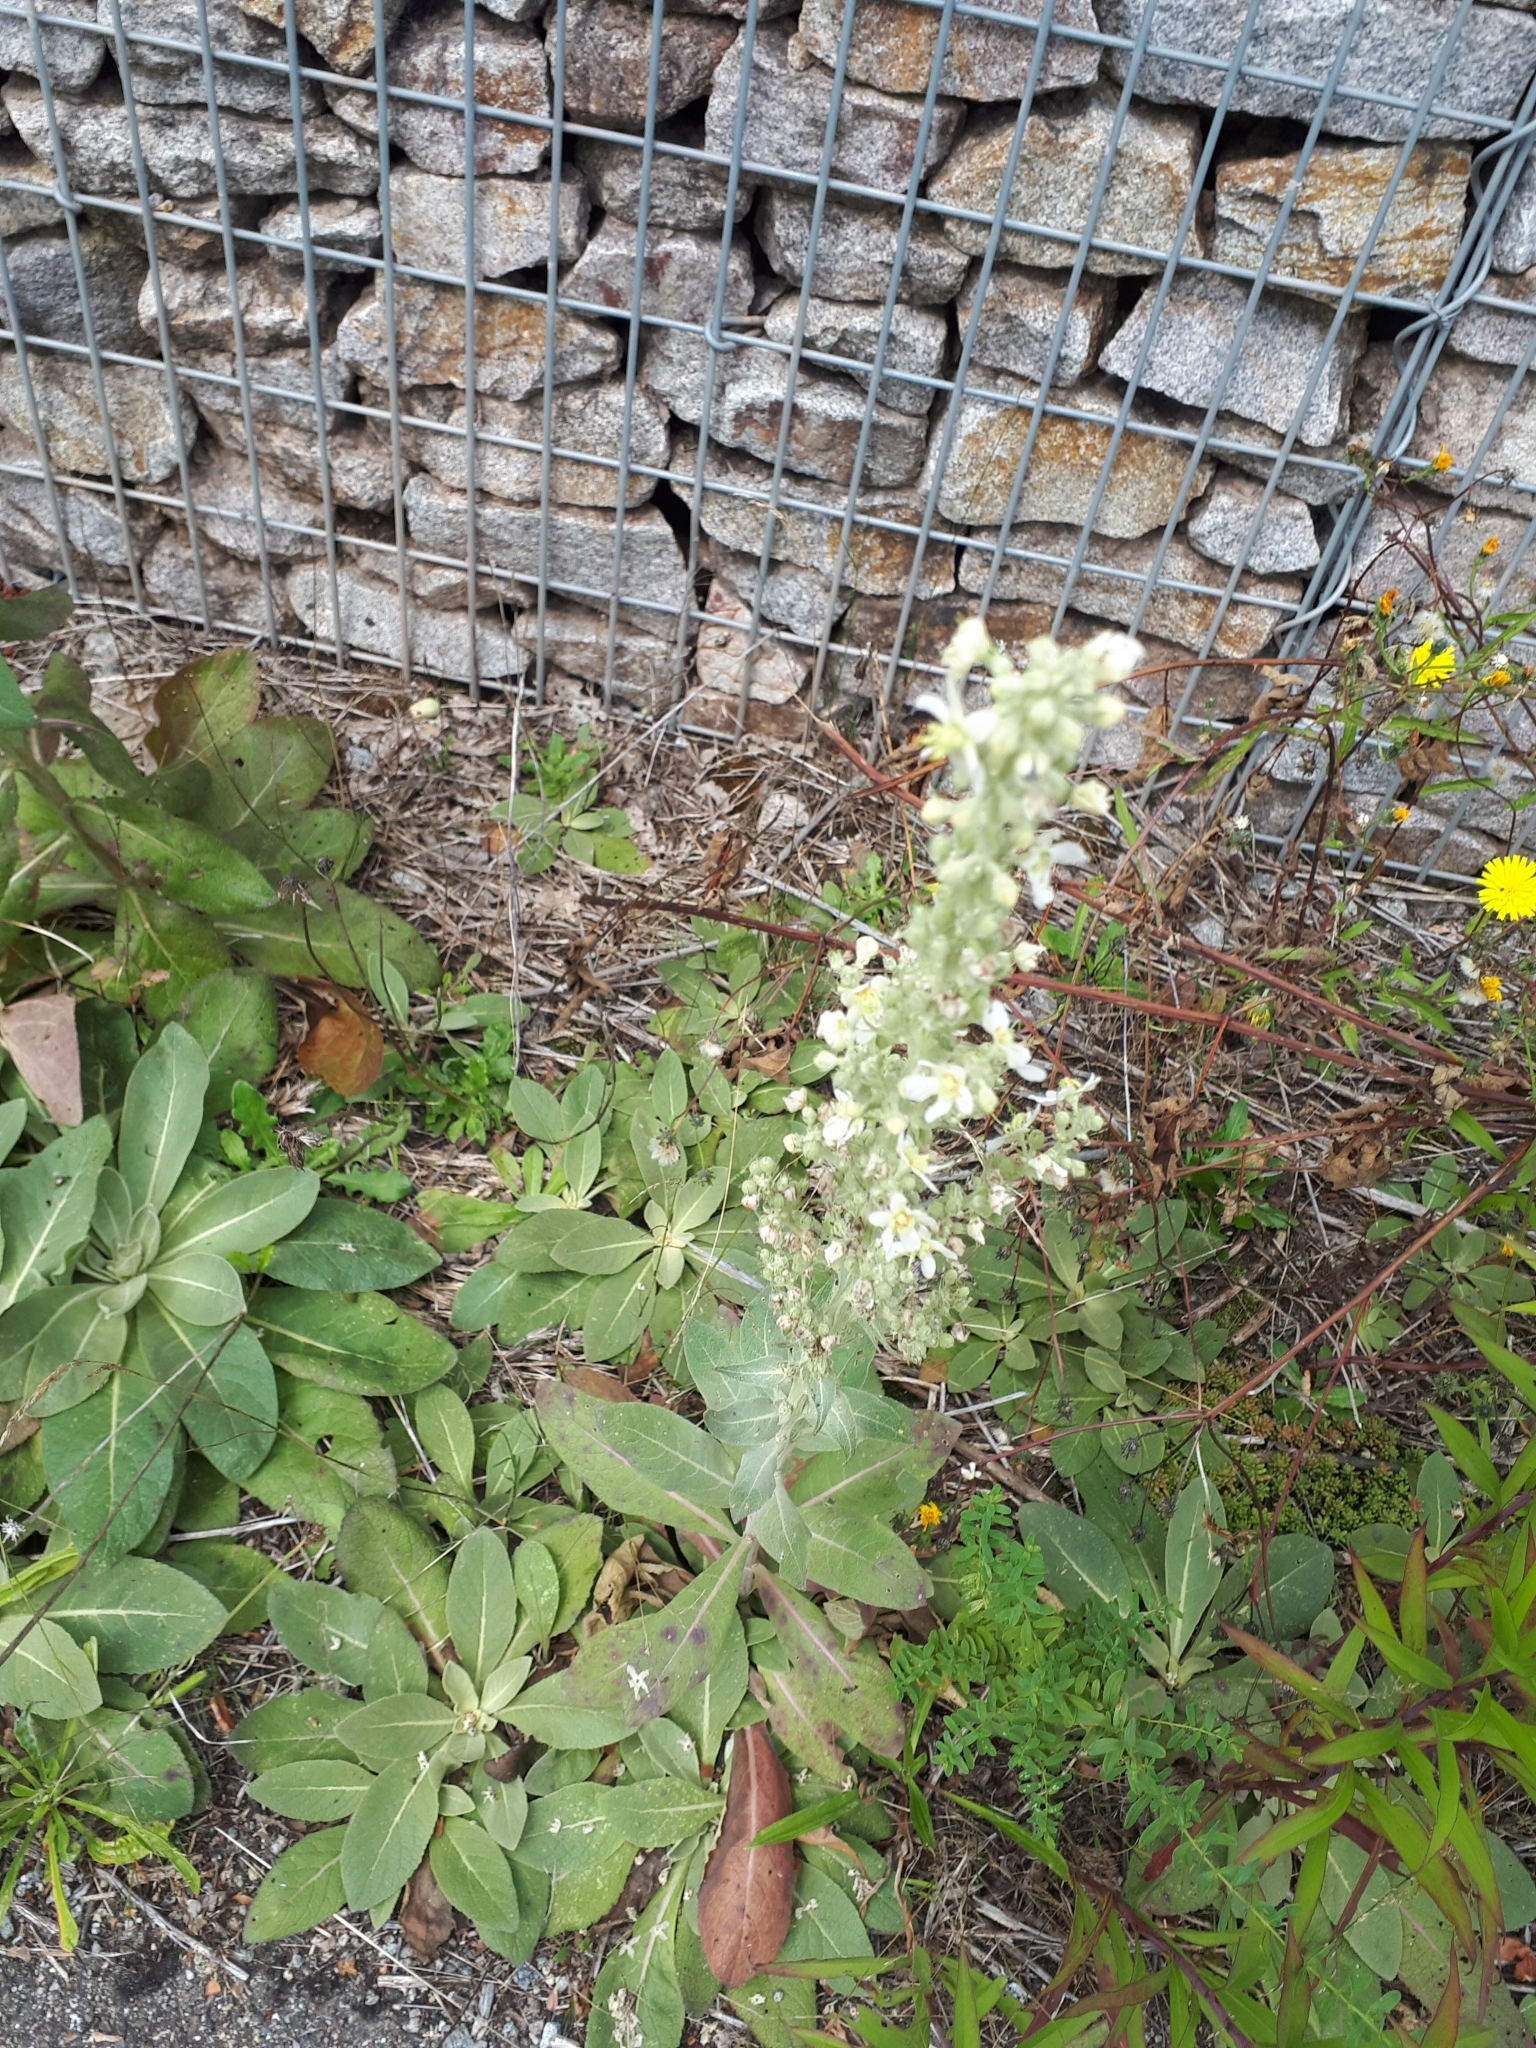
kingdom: Plantae
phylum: Tracheophyta
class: Magnoliopsida
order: Lamiales
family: Scrophulariaceae
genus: Verbascum
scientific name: Verbascum lychnitis
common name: White mullein
